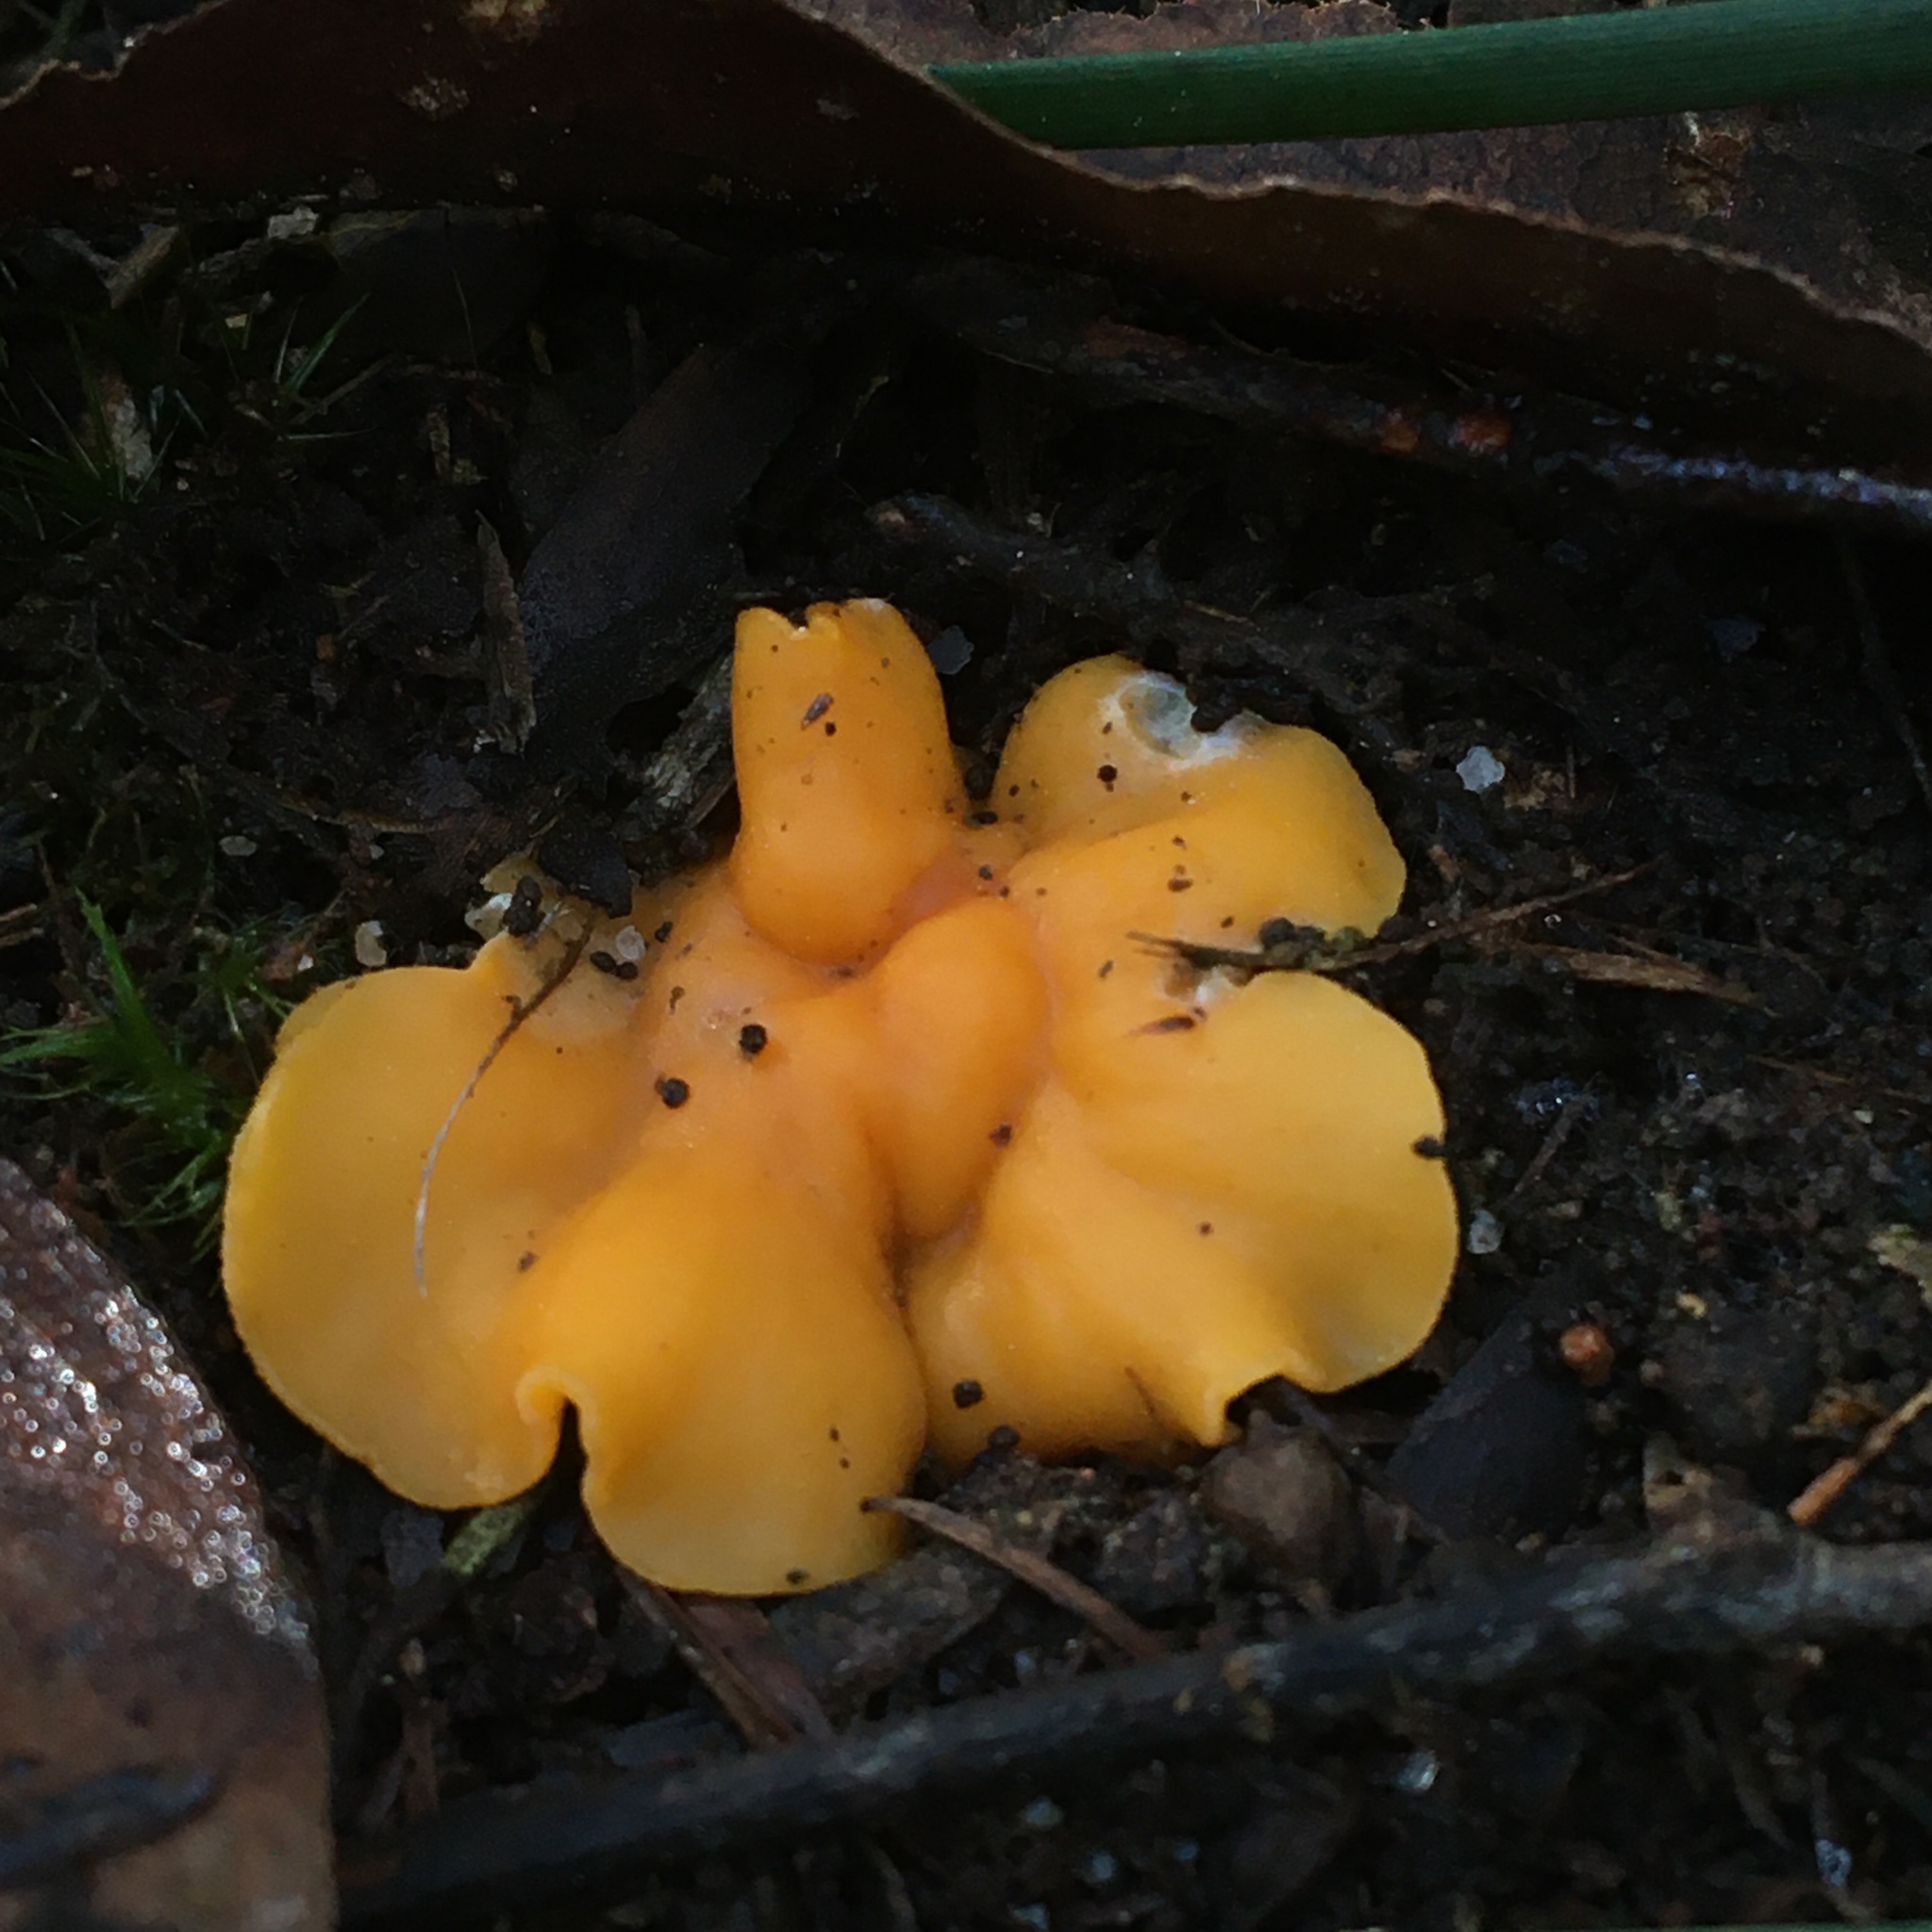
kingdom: Fungi
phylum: Ascomycota
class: Leotiomycetes
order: Helotiales
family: Helotiaceae
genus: Phaeohelotium
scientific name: Phaeohelotium baileyanum
